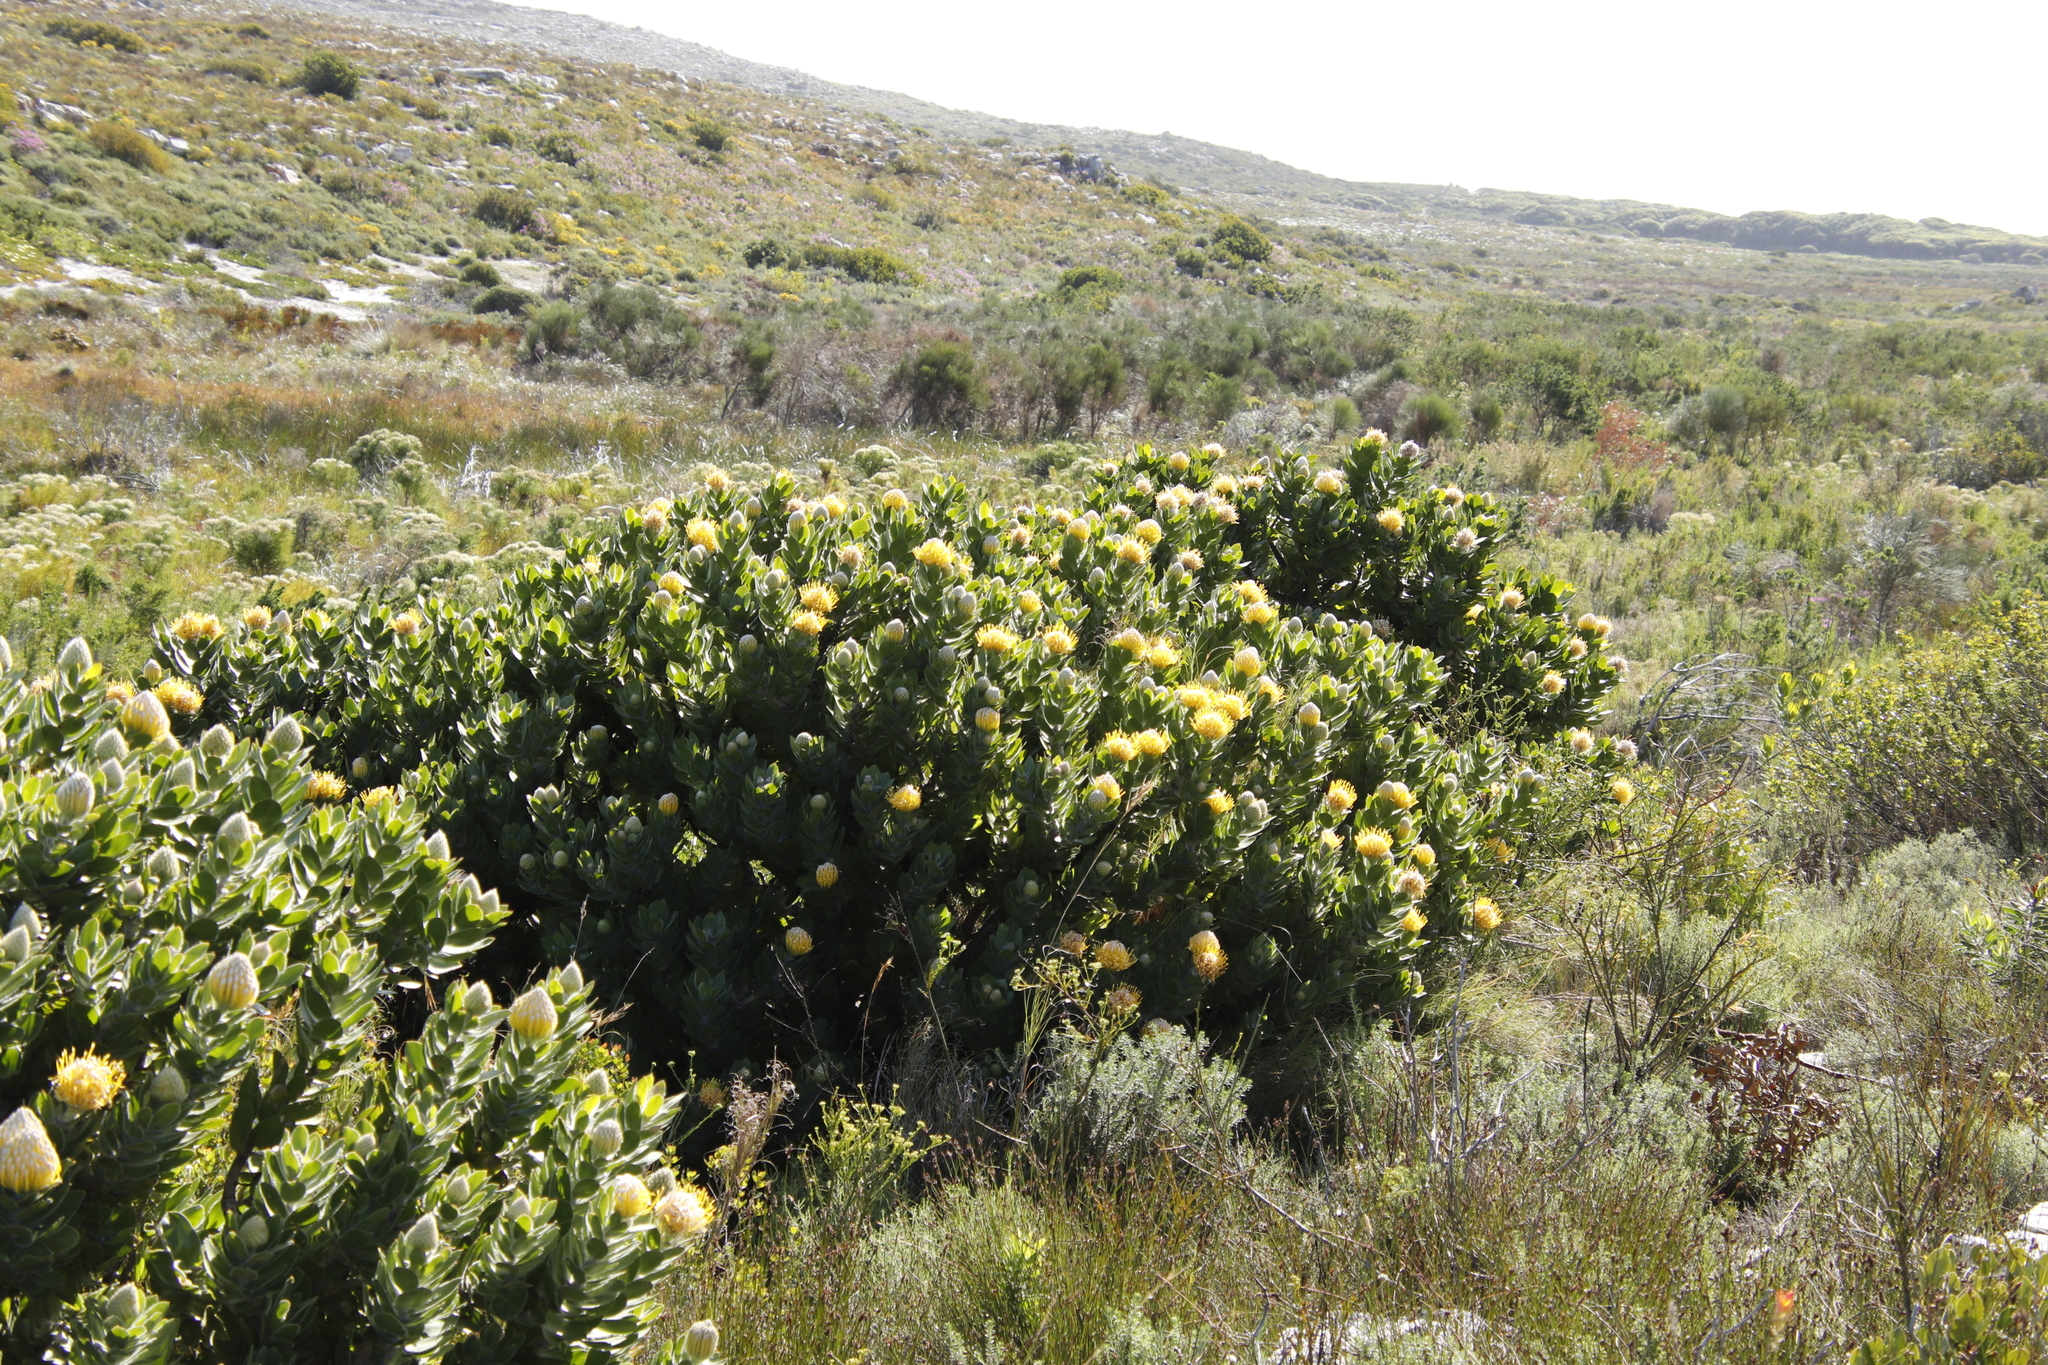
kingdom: Plantae
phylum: Tracheophyta
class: Magnoliopsida
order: Proteales
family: Proteaceae
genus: Leucospermum
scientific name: Leucospermum conocarpodendron
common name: Tree pincushion
